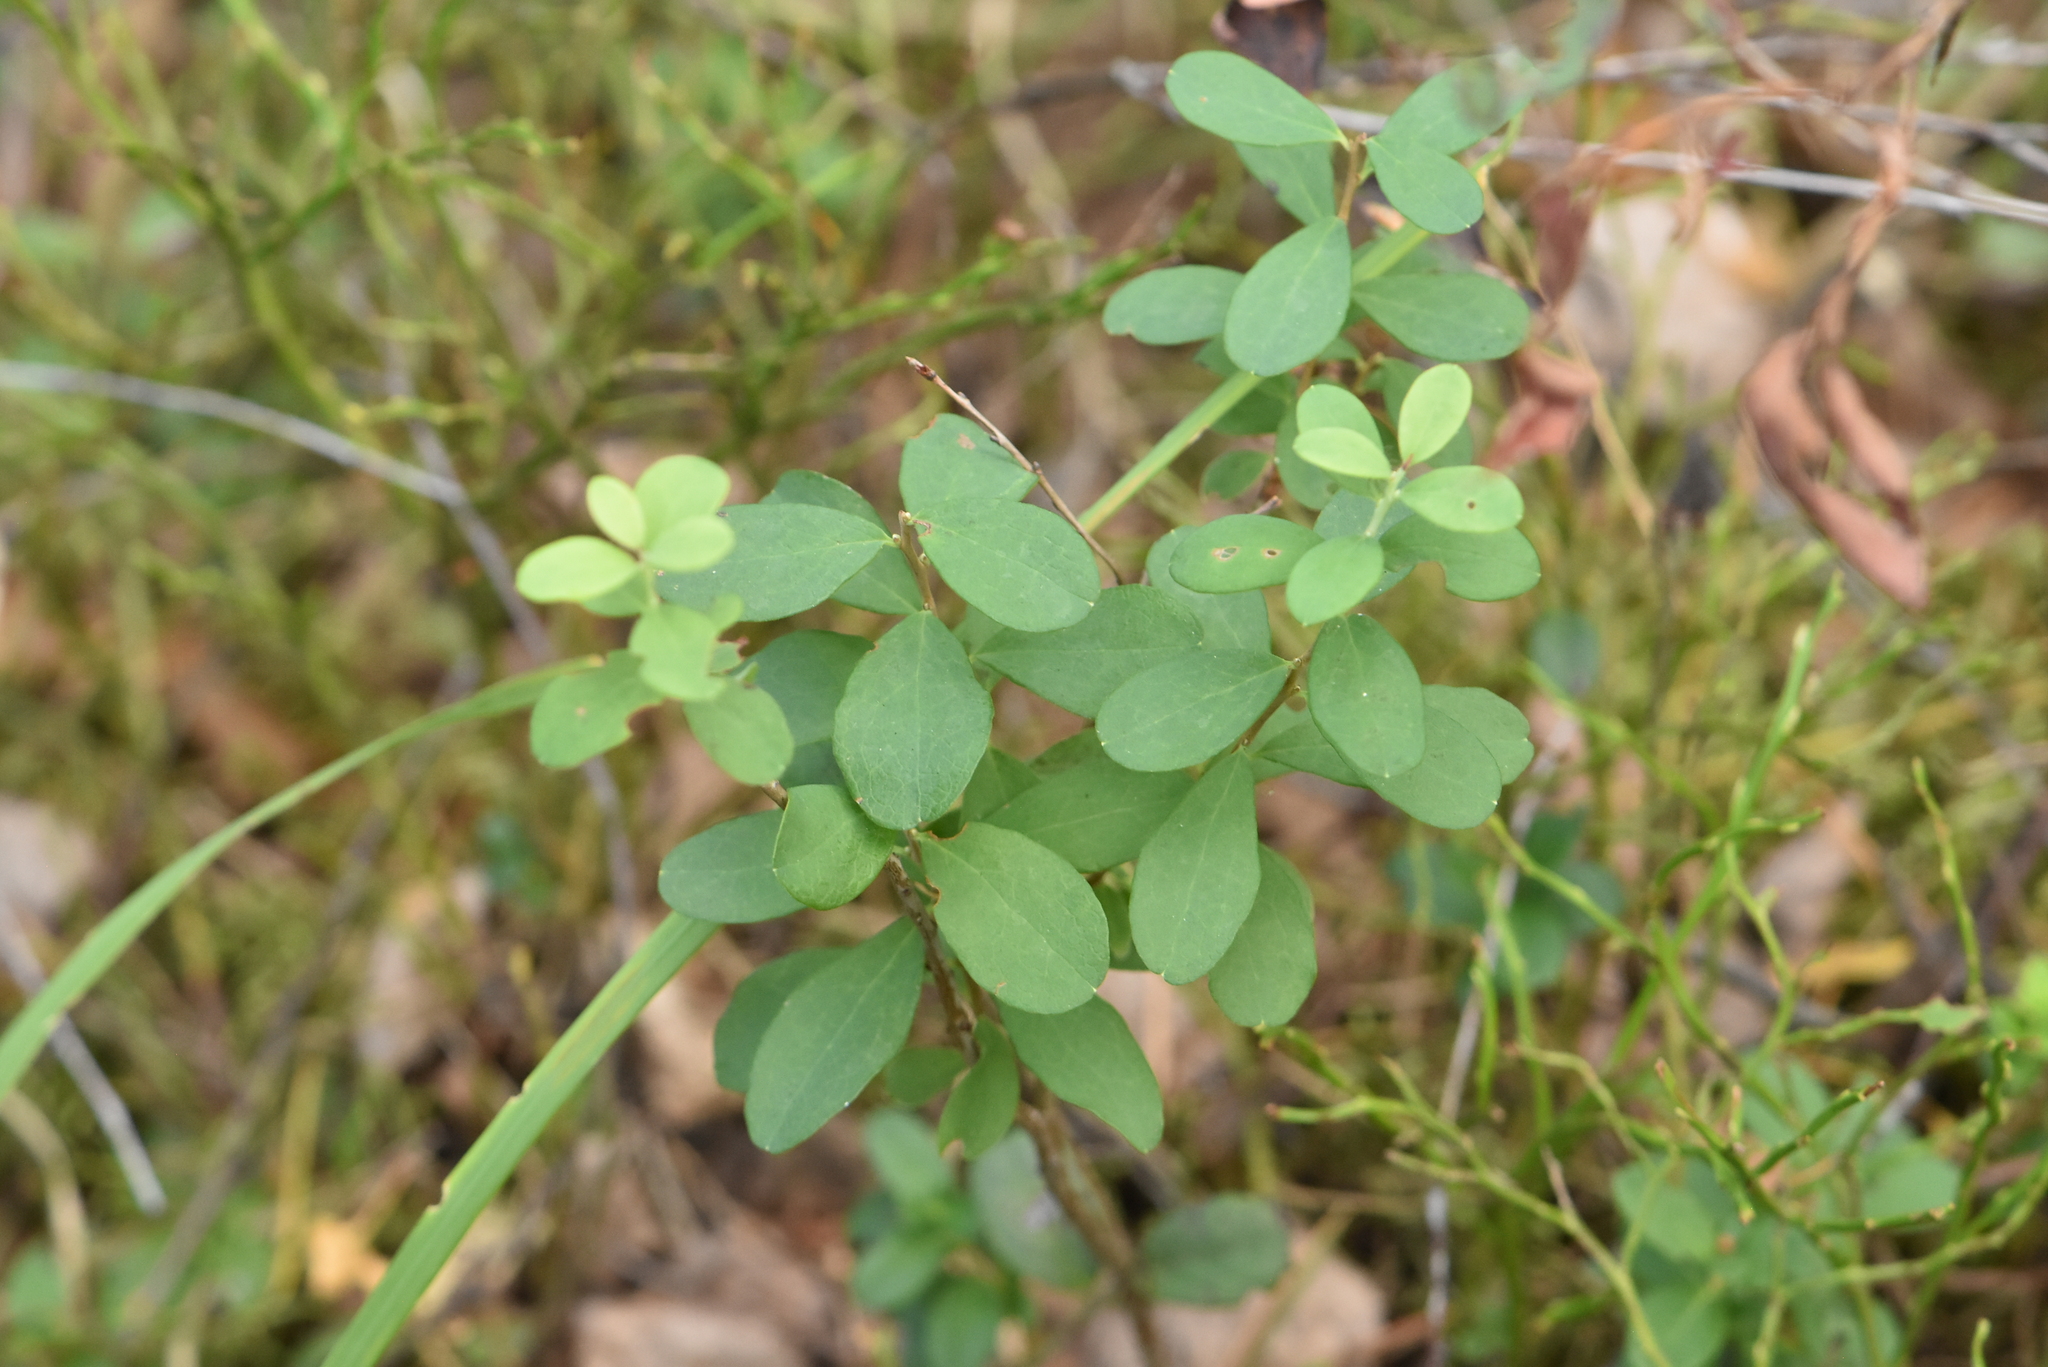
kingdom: Plantae
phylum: Tracheophyta
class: Magnoliopsida
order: Ericales
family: Ericaceae
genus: Vaccinium
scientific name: Vaccinium uliginosum
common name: Bog bilberry
